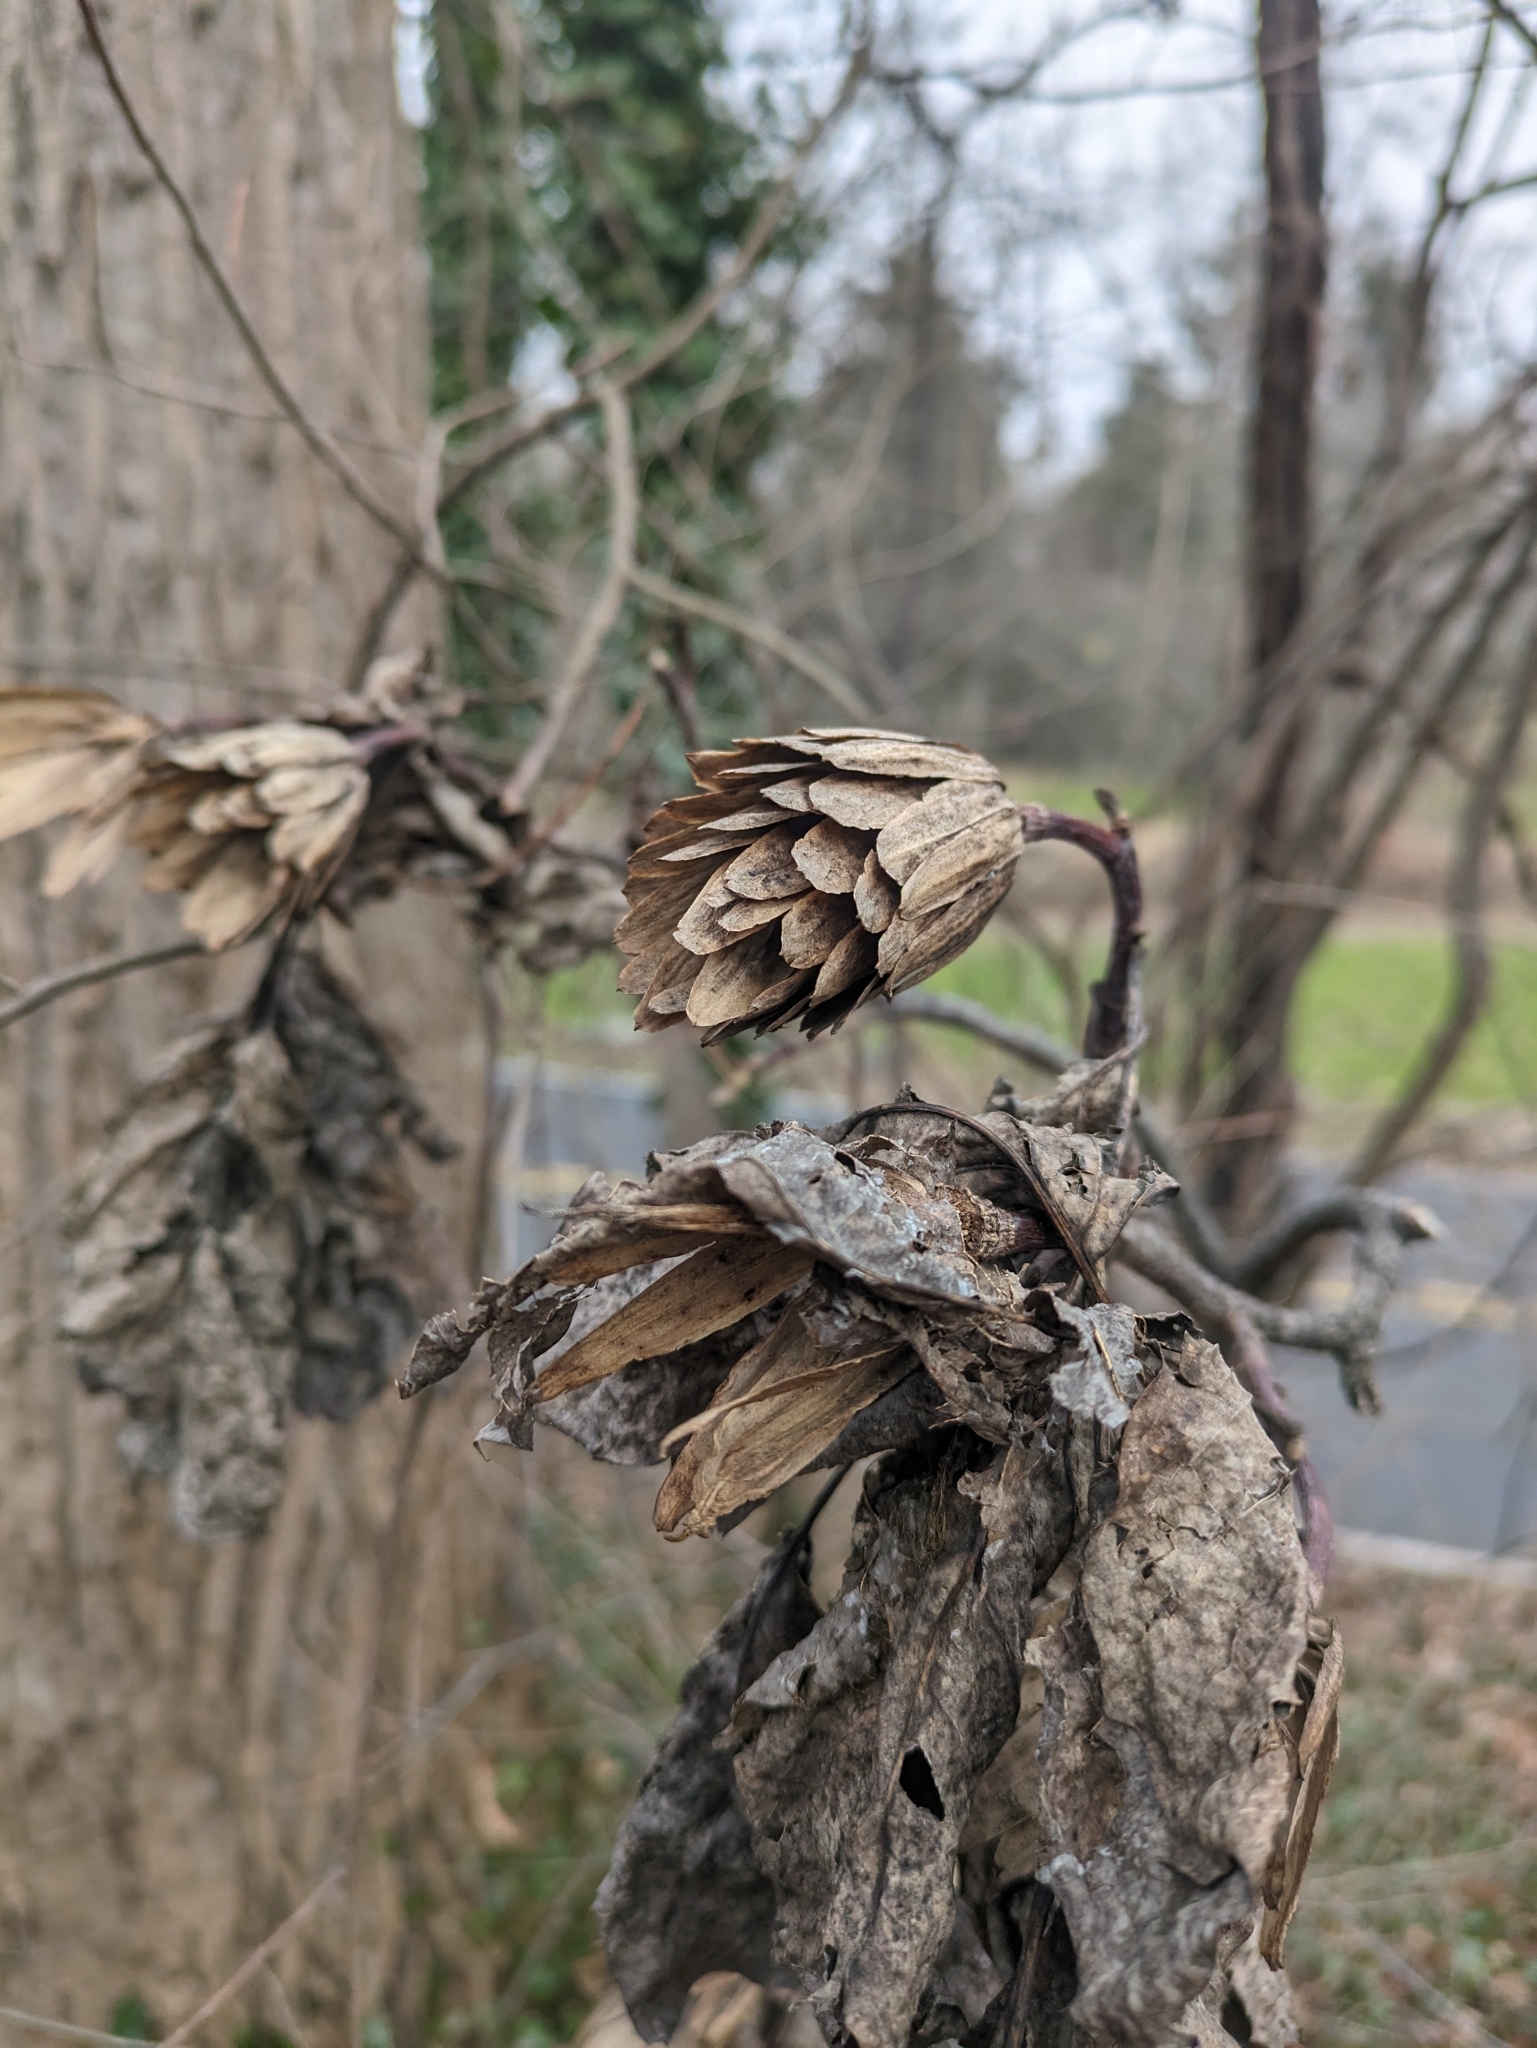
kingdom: Plantae
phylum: Tracheophyta
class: Magnoliopsida
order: Magnoliales
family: Magnoliaceae
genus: Liriodendron
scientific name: Liriodendron tulipifera
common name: Tulip tree
